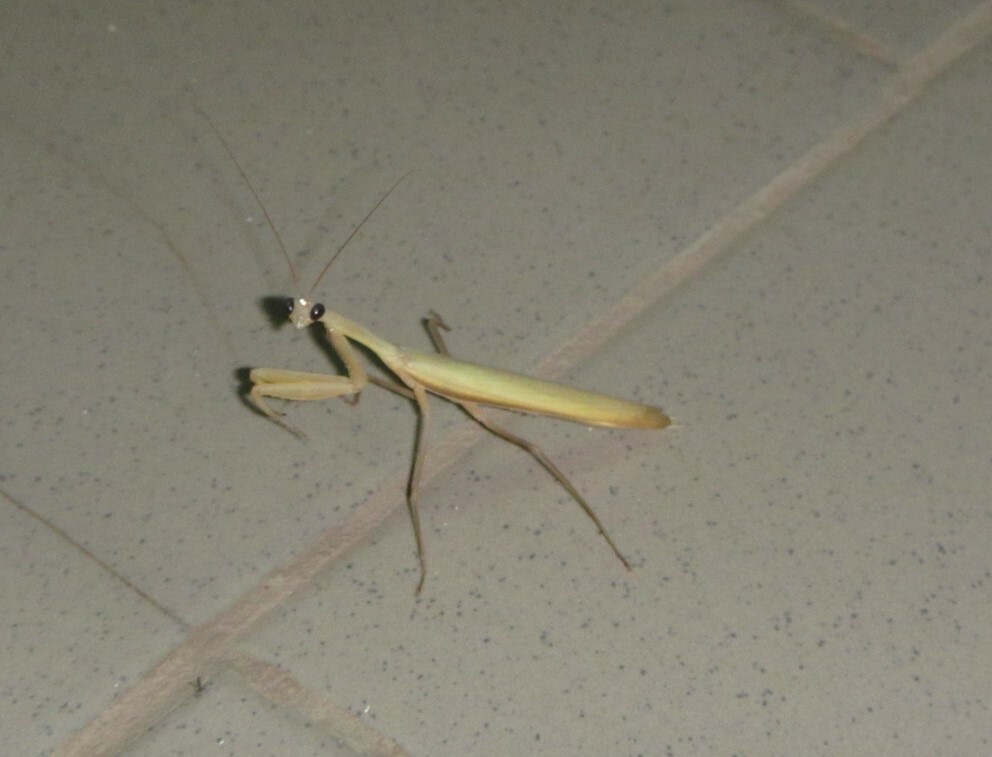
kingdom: Animalia
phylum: Arthropoda
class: Insecta
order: Mantodea
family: Mantidae
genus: Mantis
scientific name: Mantis religiosa
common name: Praying mantis
